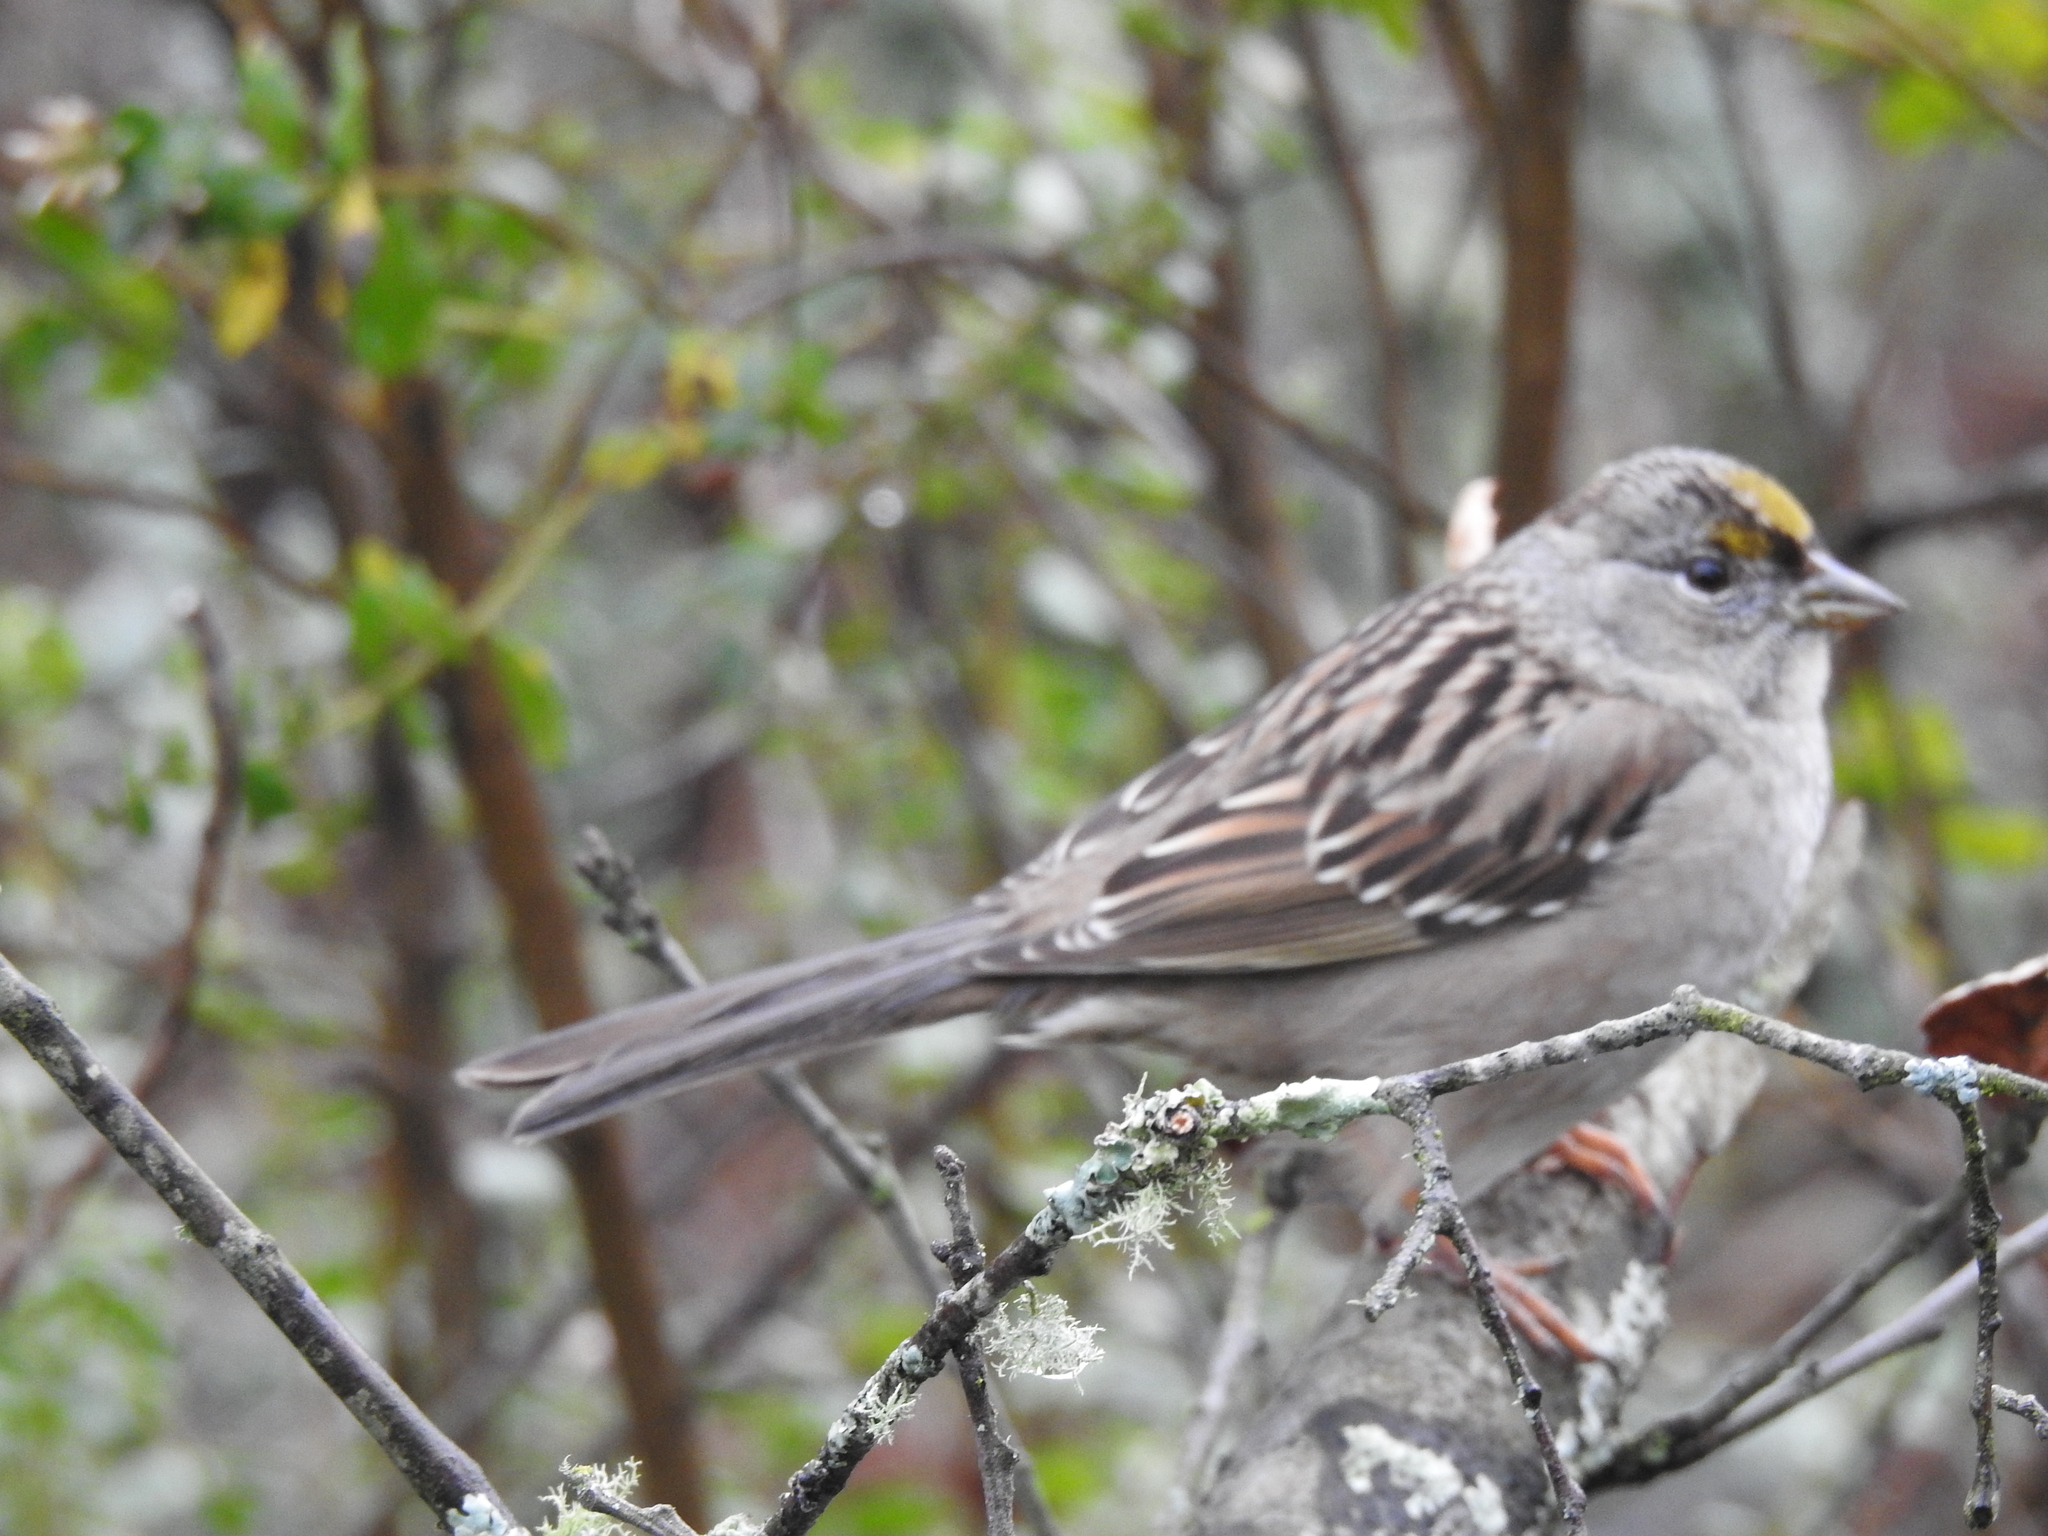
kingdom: Animalia
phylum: Chordata
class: Aves
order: Passeriformes
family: Passerellidae
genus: Zonotrichia
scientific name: Zonotrichia atricapilla
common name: Golden-crowned sparrow
